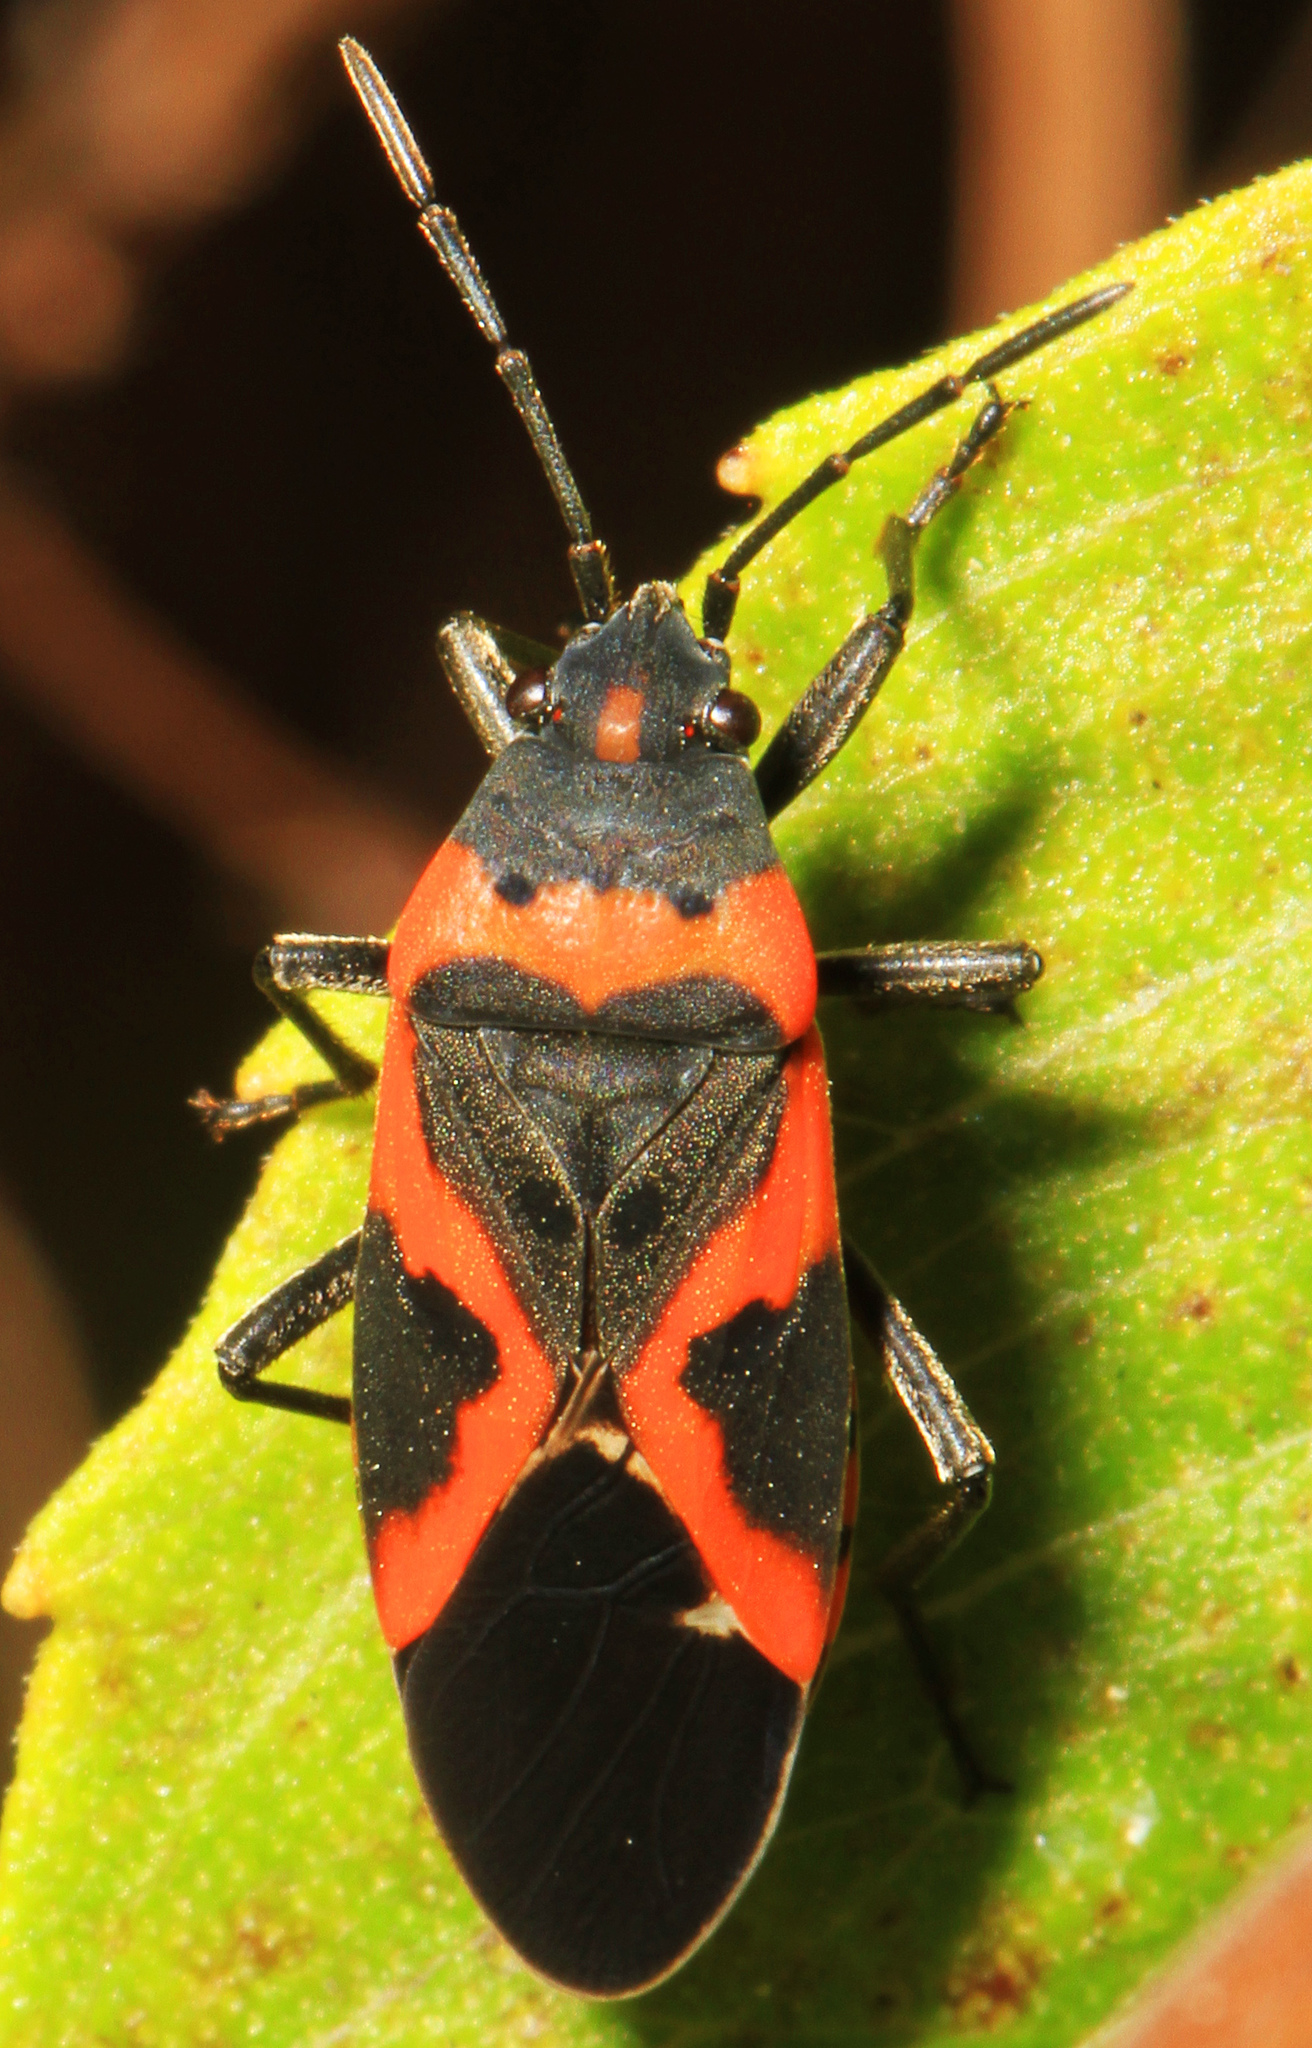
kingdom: Animalia
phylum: Arthropoda
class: Insecta
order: Hemiptera
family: Lygaeidae
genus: Lygaeus
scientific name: Lygaeus kalmii
